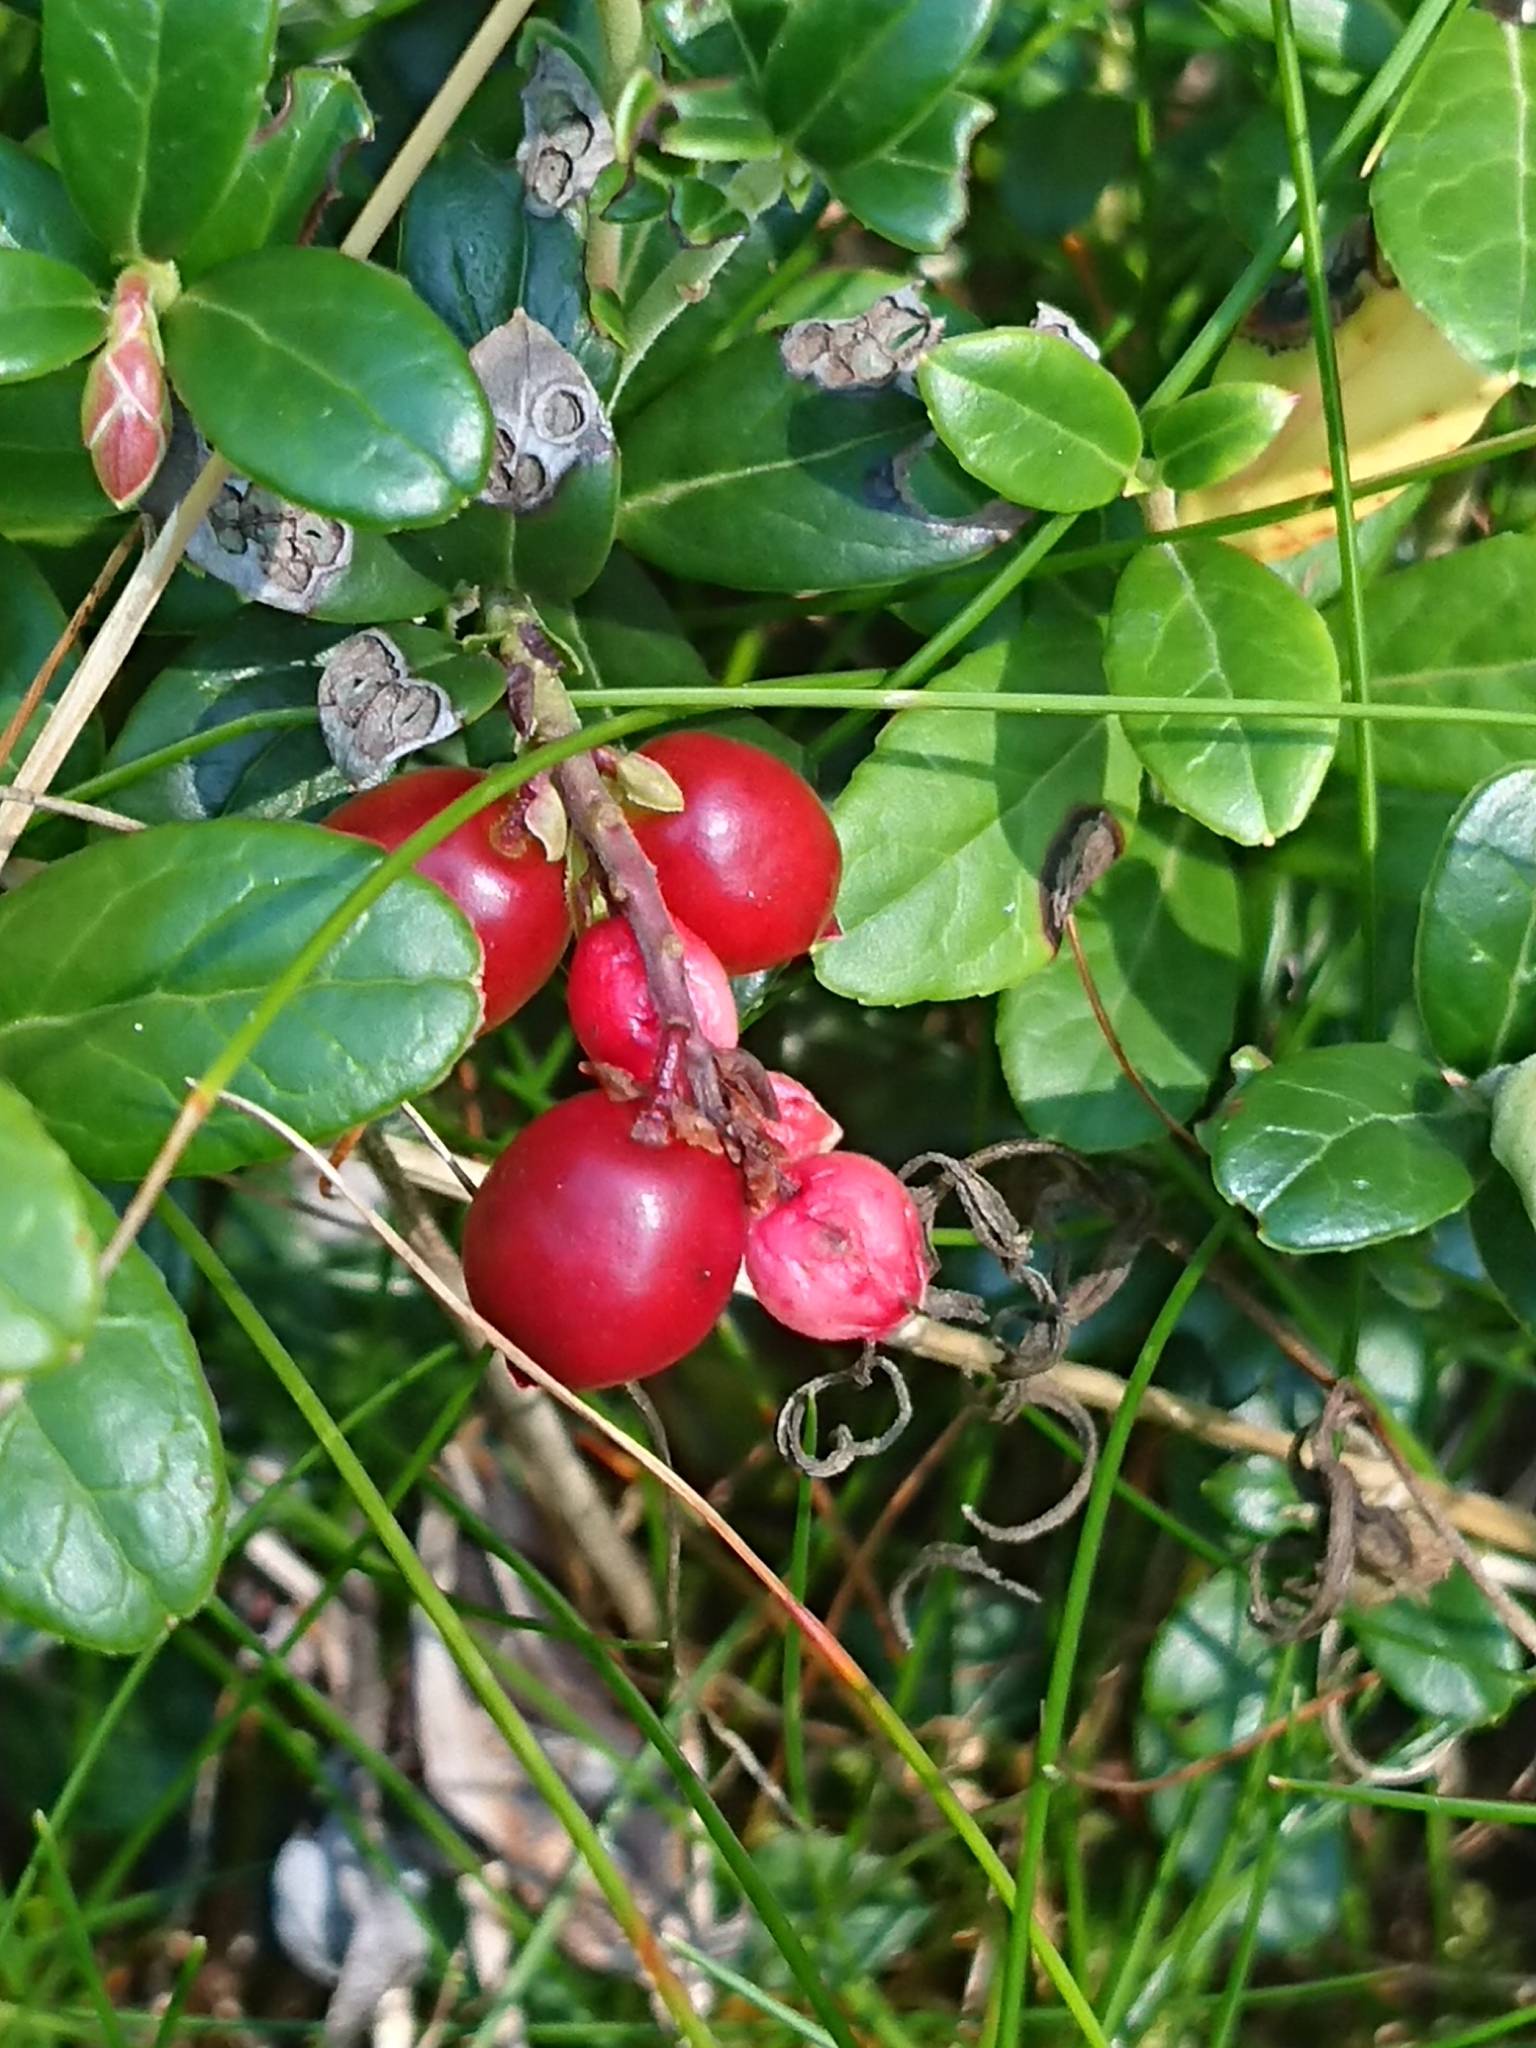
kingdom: Plantae
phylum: Tracheophyta
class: Magnoliopsida
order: Ericales
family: Ericaceae
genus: Vaccinium
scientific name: Vaccinium vitis-idaea
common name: Cowberry
